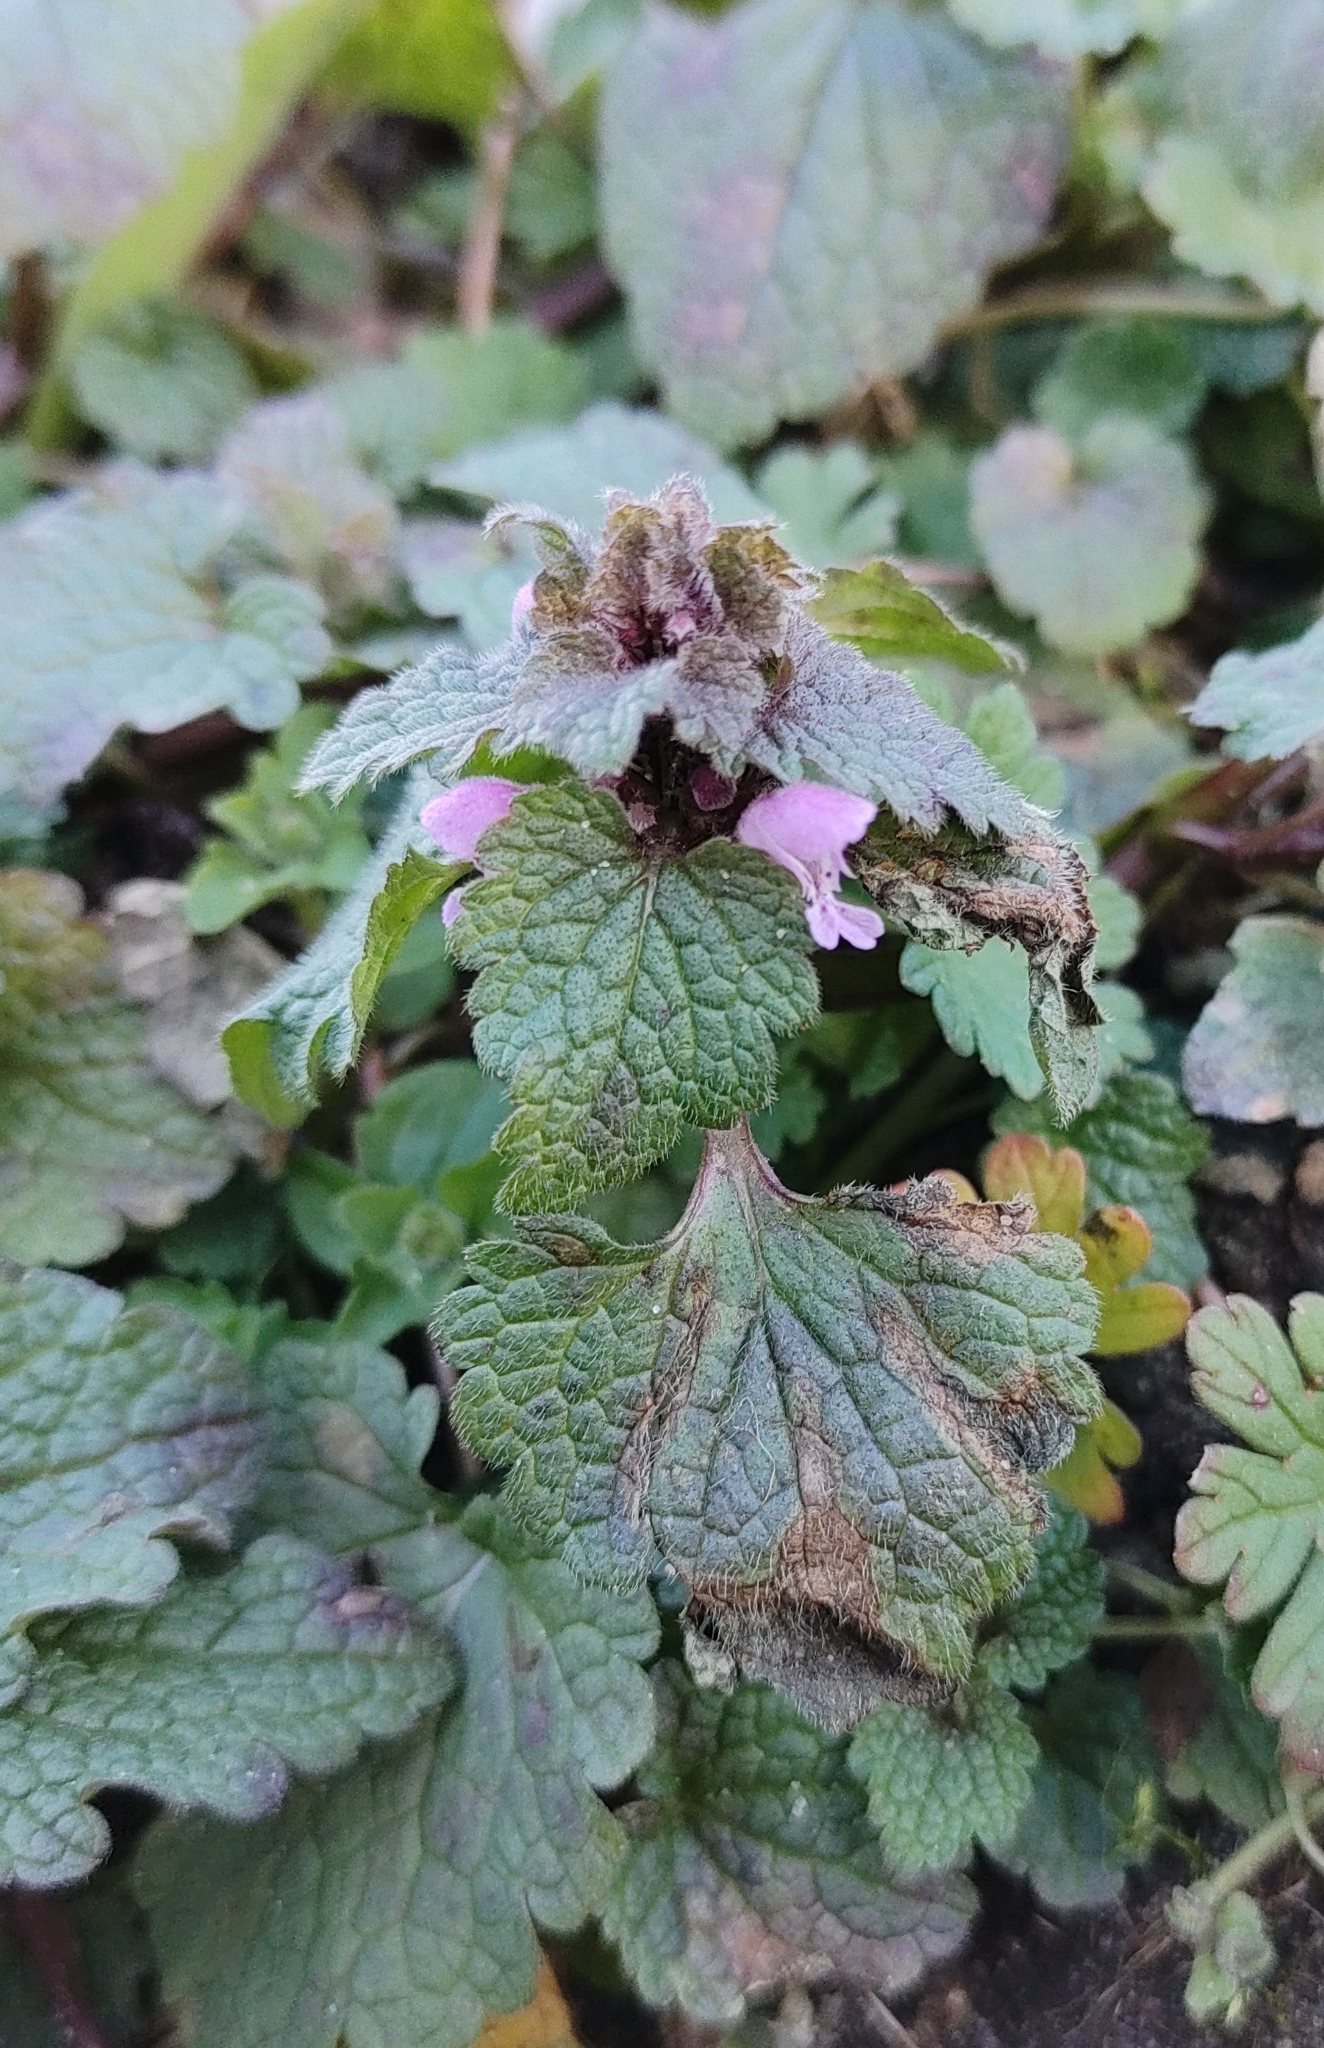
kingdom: Plantae
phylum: Tracheophyta
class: Magnoliopsida
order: Lamiales
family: Lamiaceae
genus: Lamium
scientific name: Lamium purpureum
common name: Red dead-nettle
